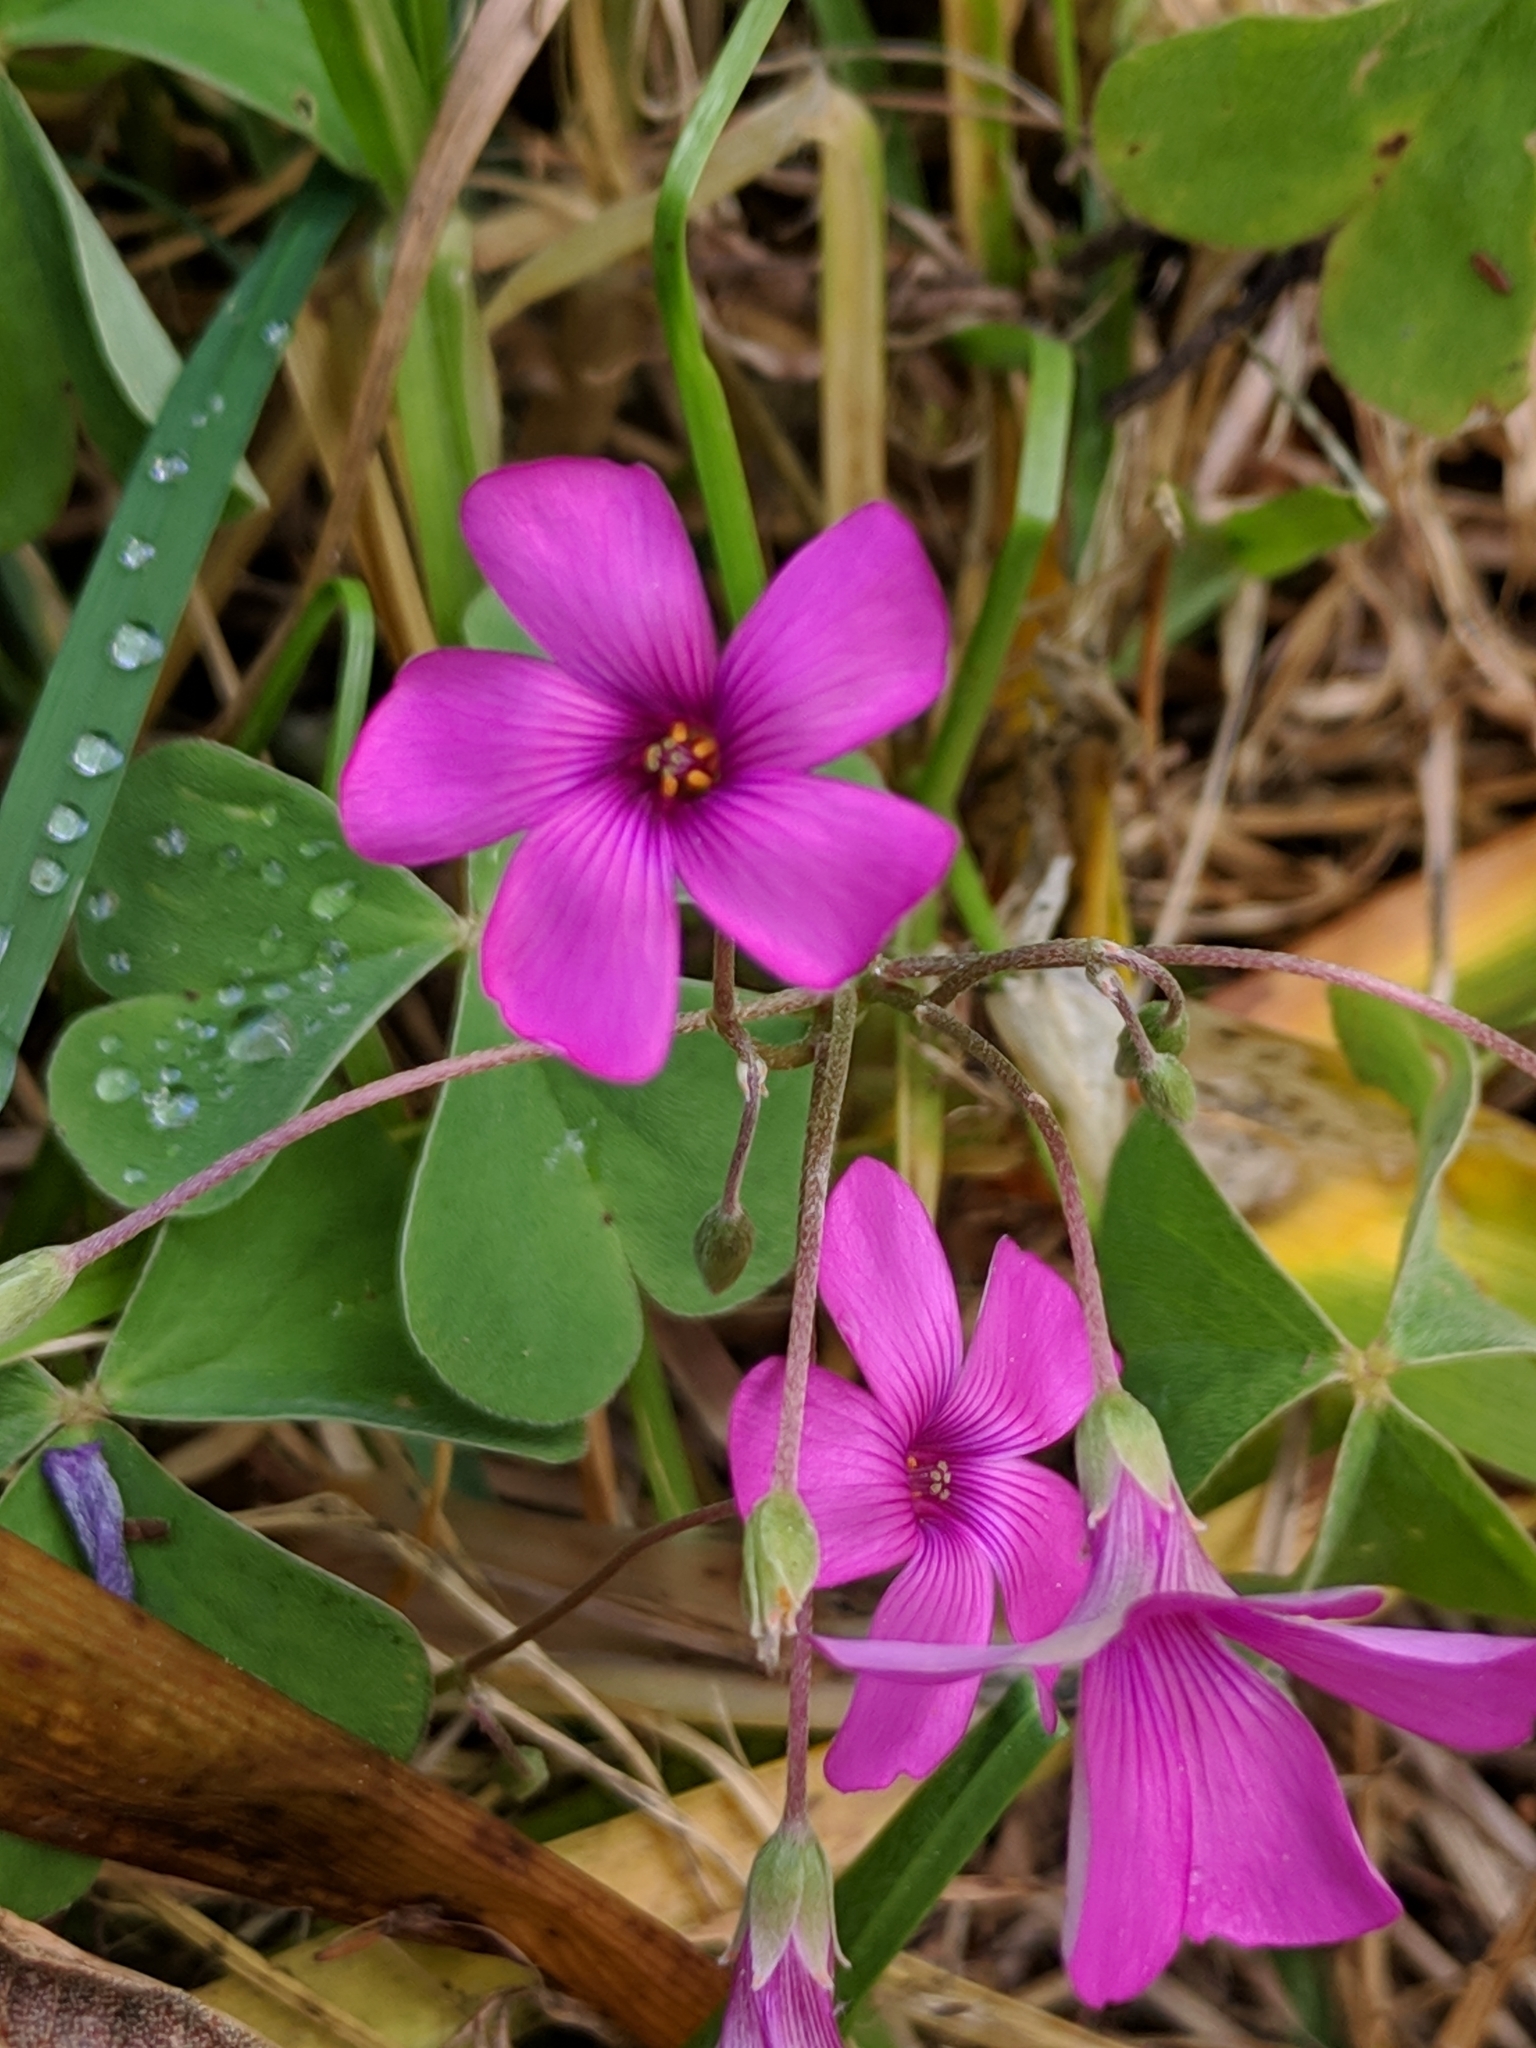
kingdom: Plantae
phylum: Tracheophyta
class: Magnoliopsida
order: Oxalidales
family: Oxalidaceae
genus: Oxalis
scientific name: Oxalis articulata
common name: Pink-sorrel
